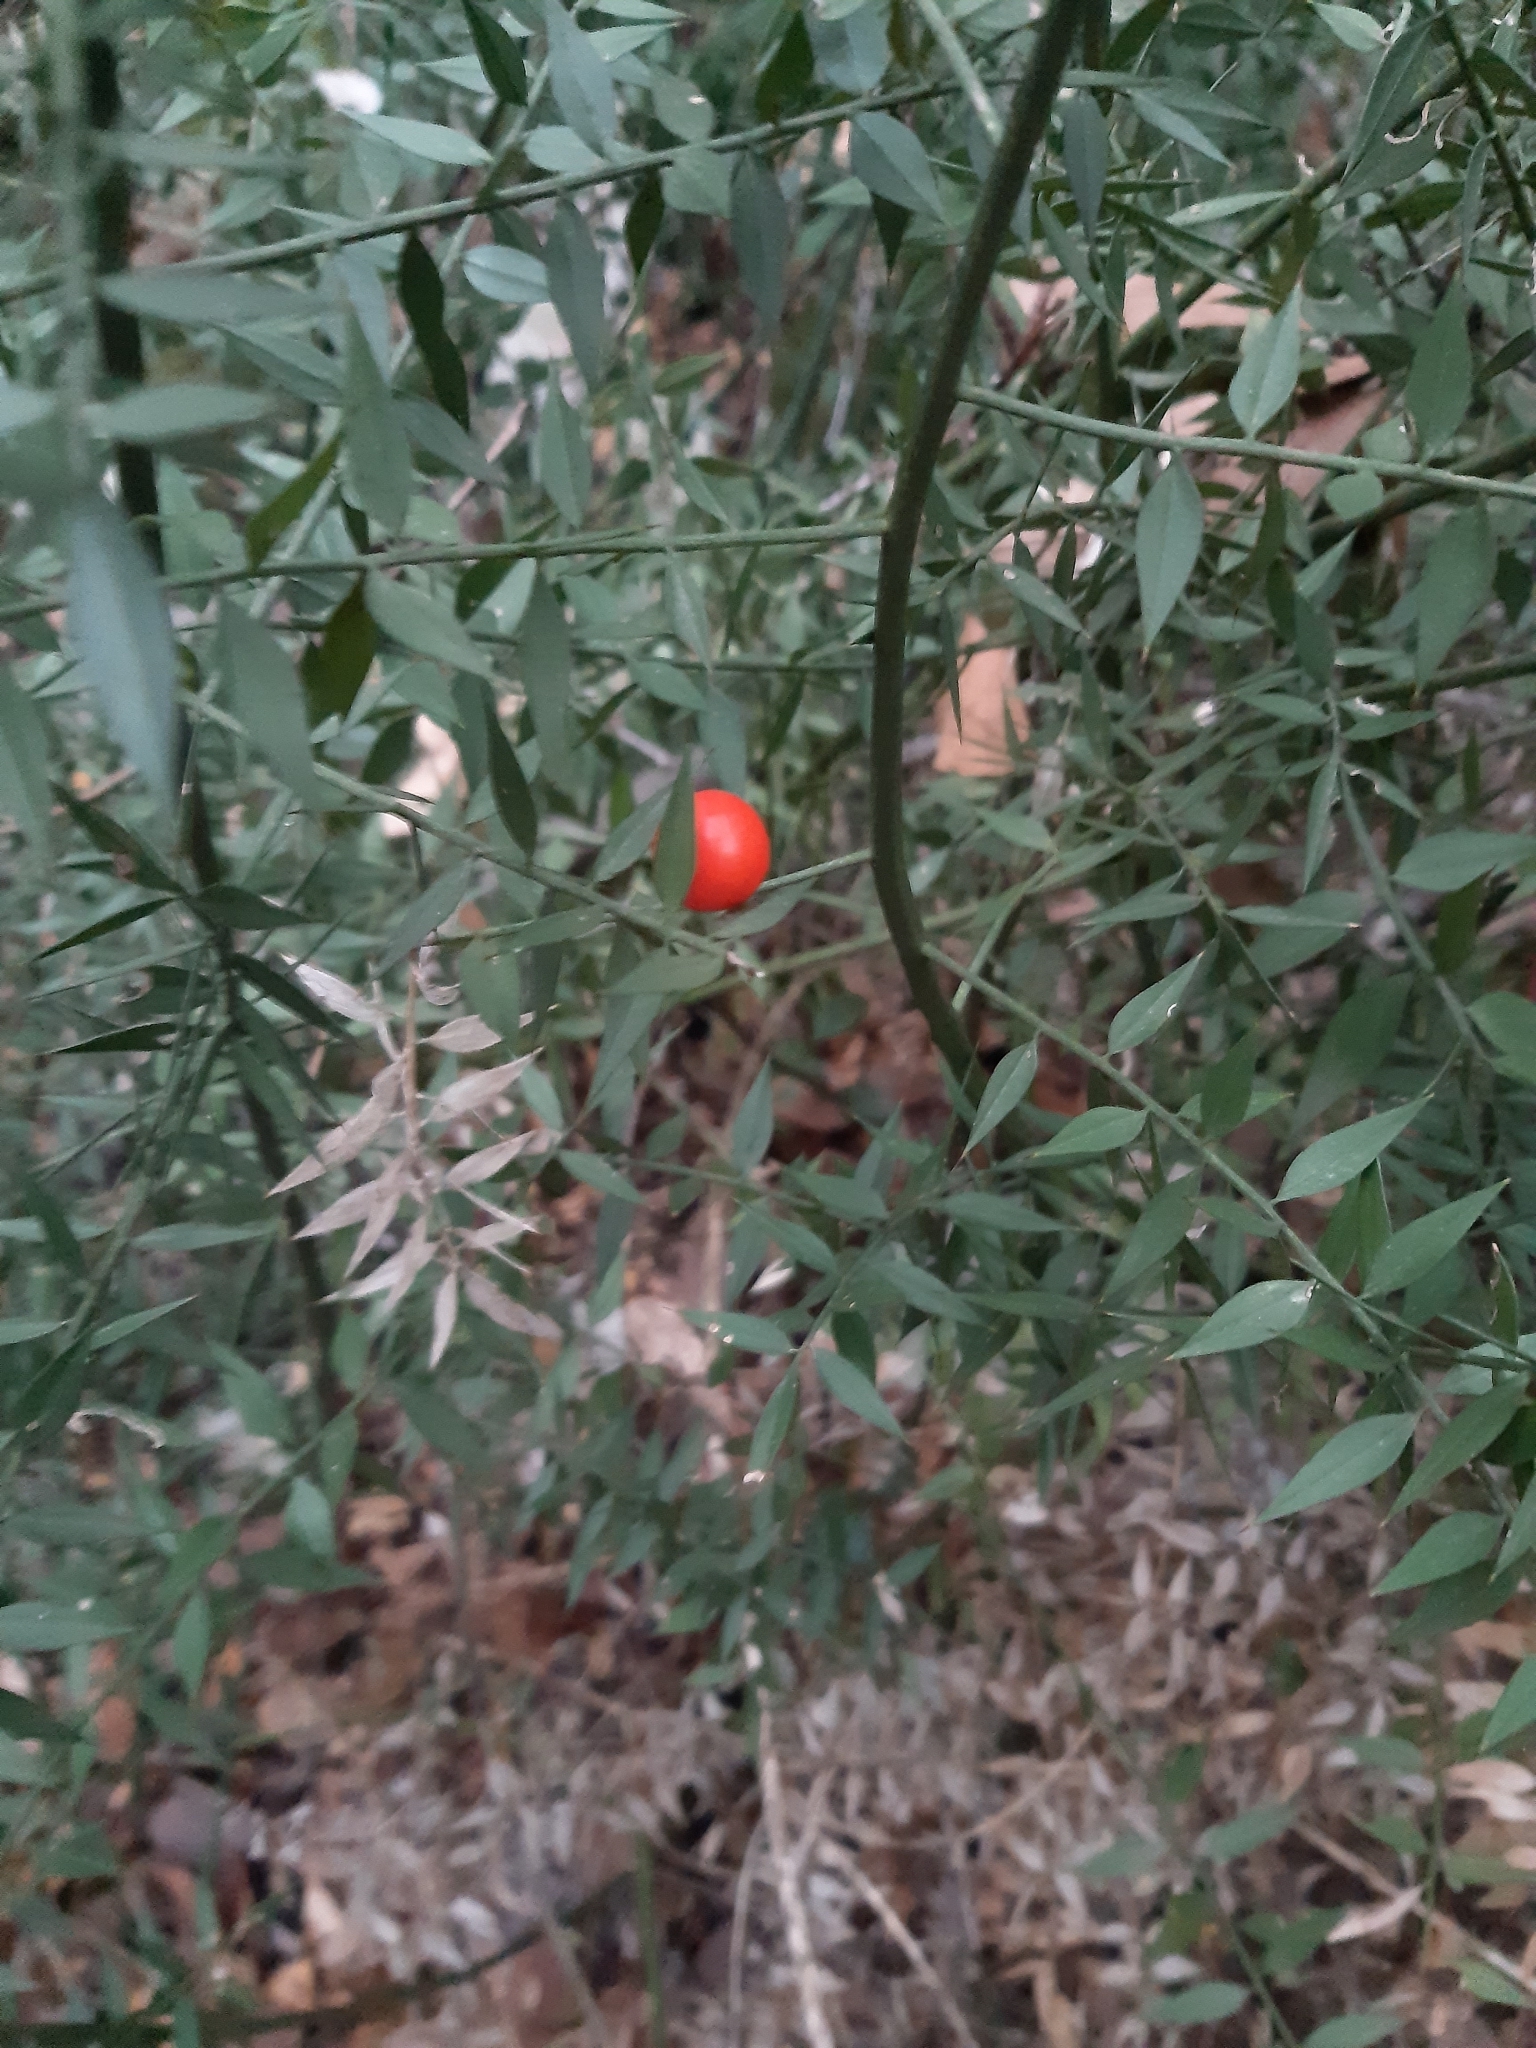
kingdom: Plantae
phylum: Tracheophyta
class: Liliopsida
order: Asparagales
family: Asparagaceae
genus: Ruscus
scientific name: Ruscus aculeatus
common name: Butcher's-broom
